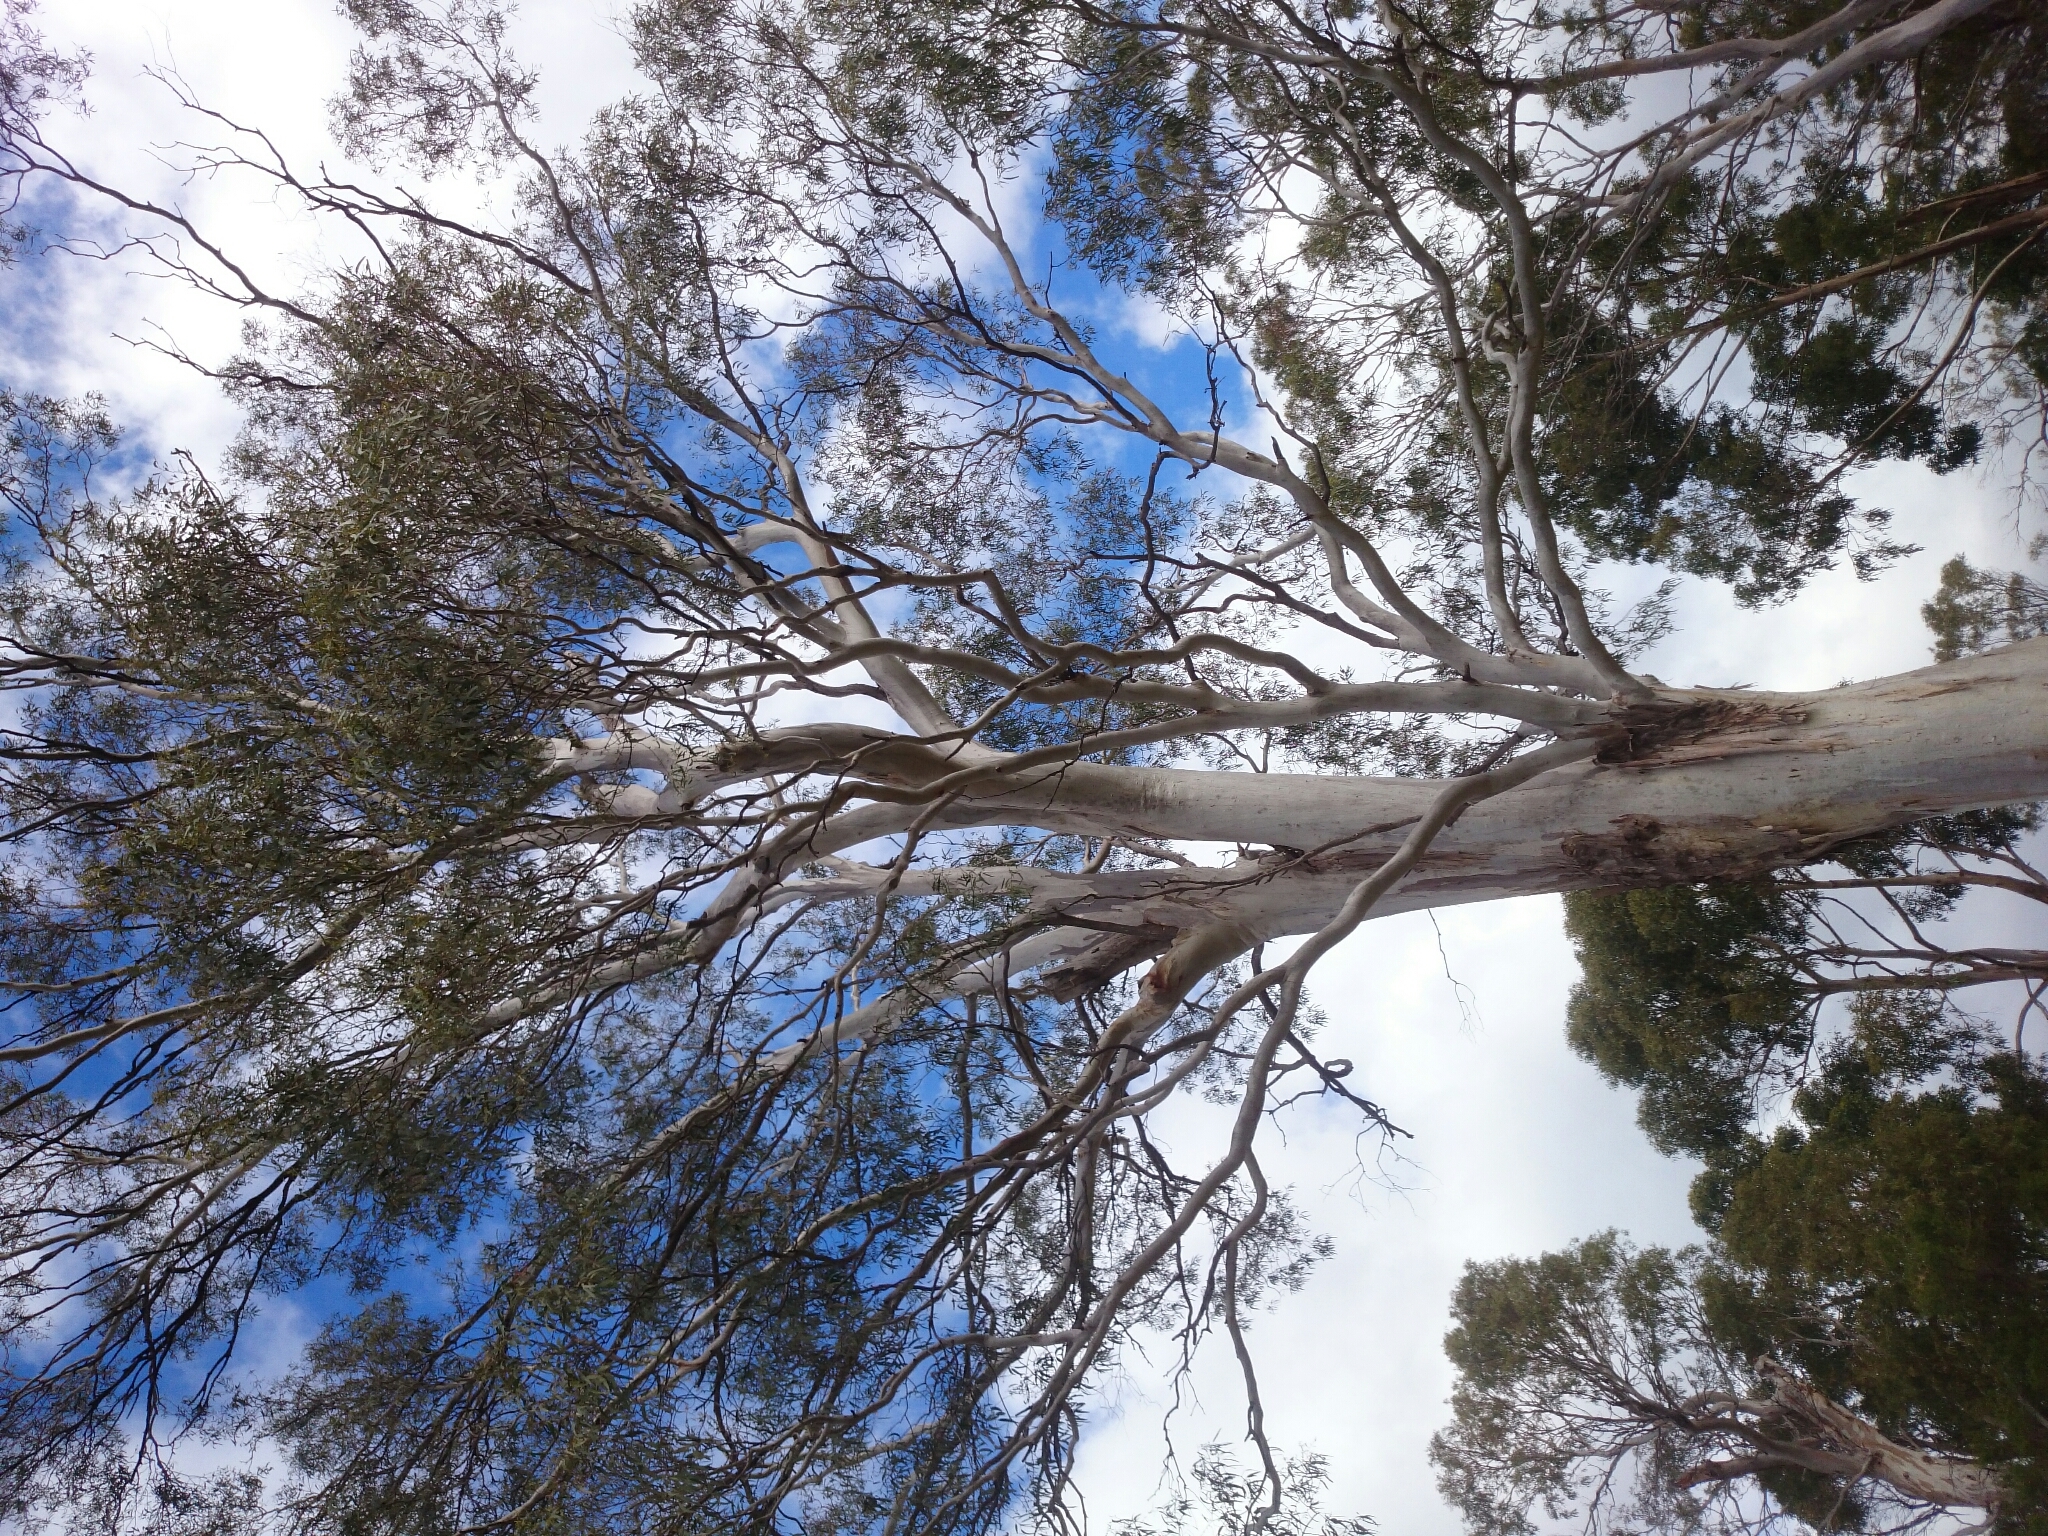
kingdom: Plantae
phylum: Tracheophyta
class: Magnoliopsida
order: Myrtales
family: Myrtaceae
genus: Eucalyptus
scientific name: Eucalyptus viminalis
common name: Manna gum
